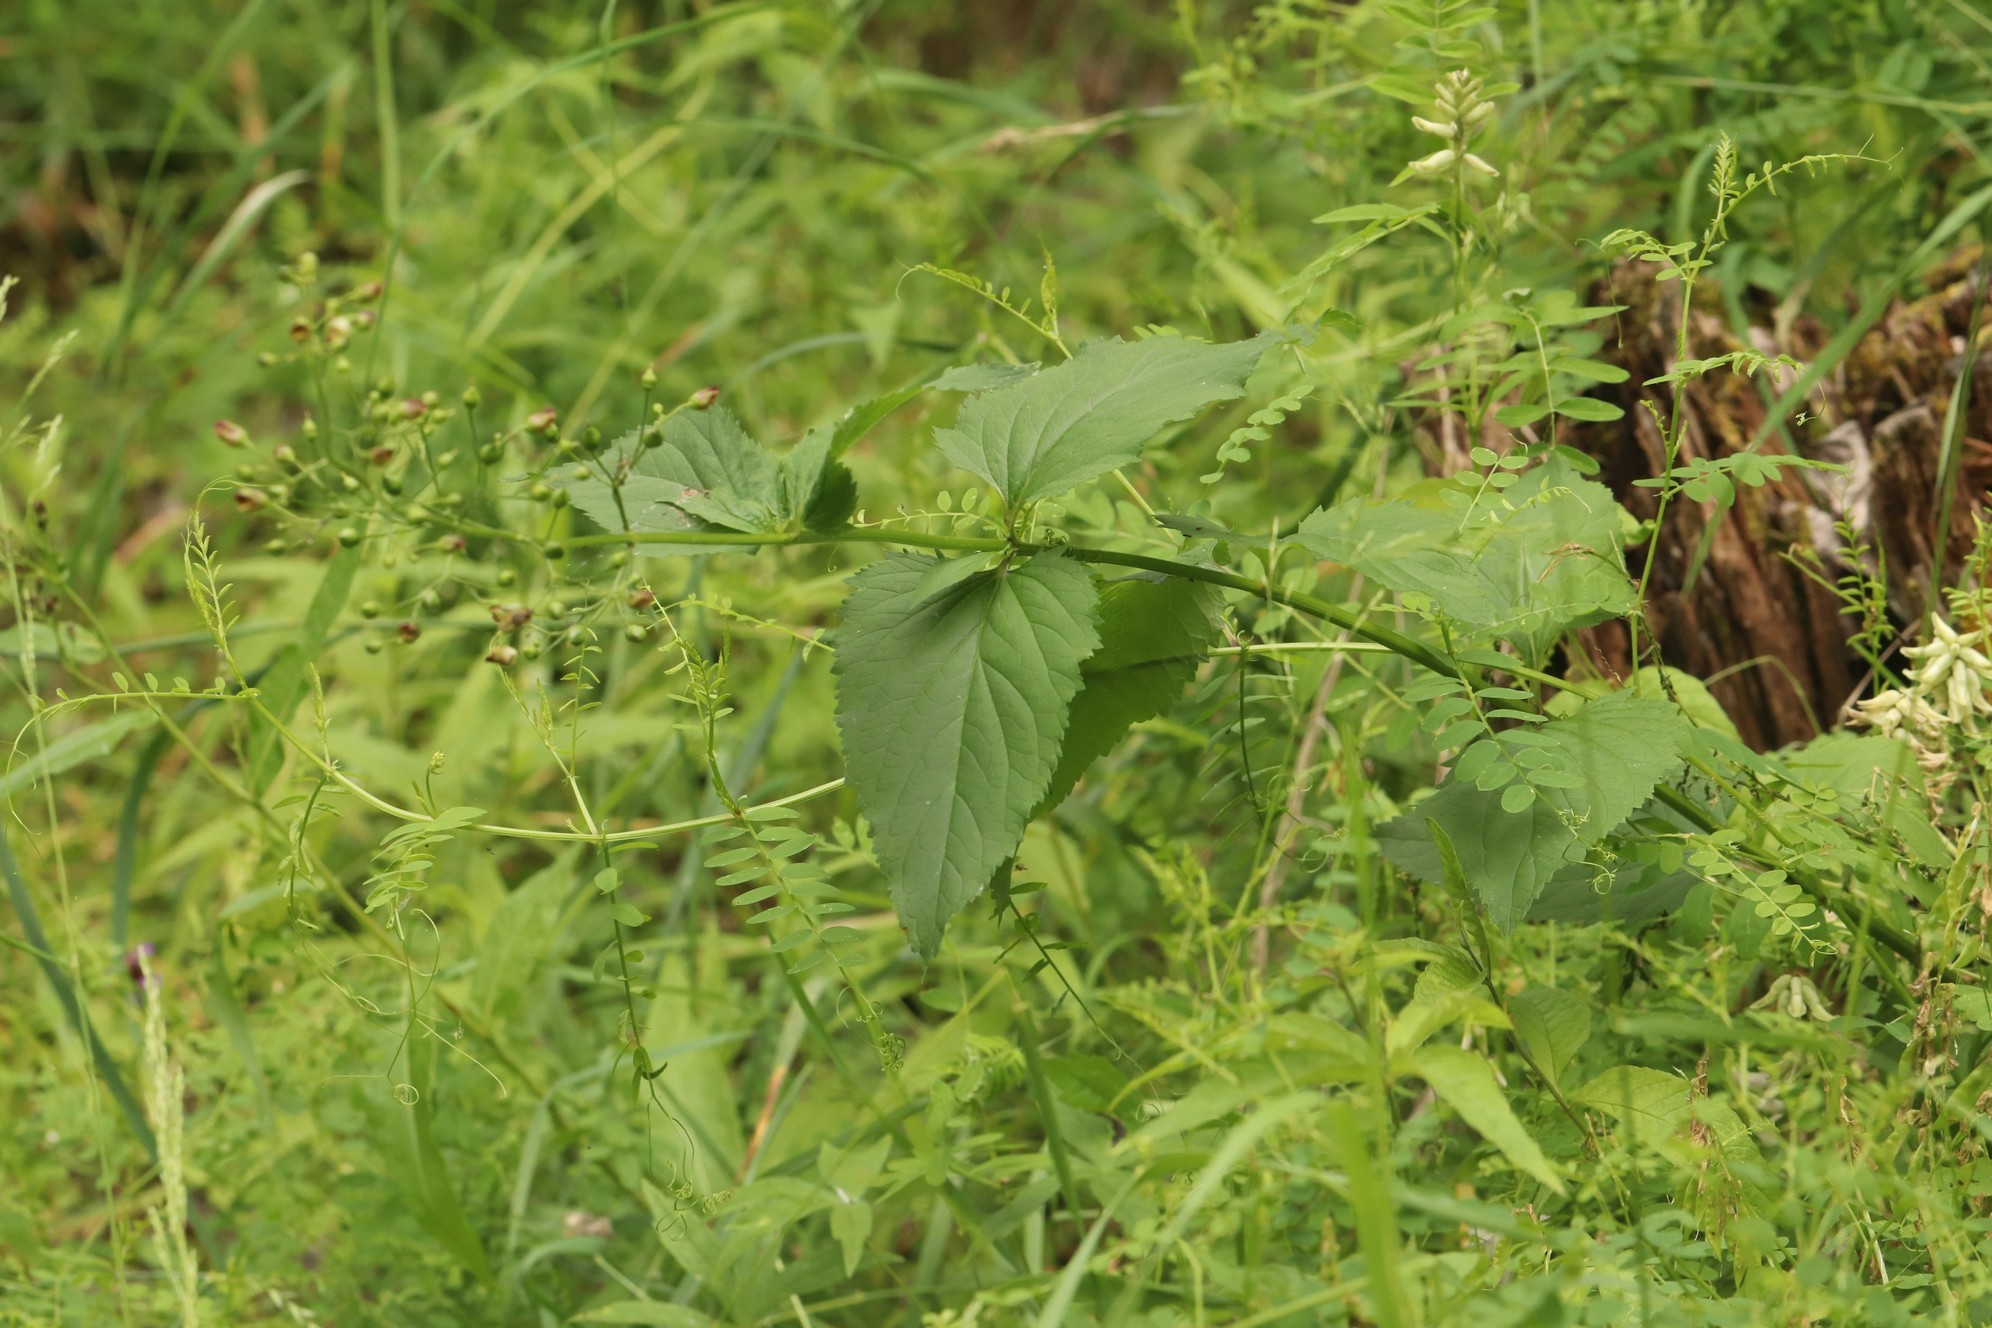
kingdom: Plantae
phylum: Tracheophyta
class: Magnoliopsida
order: Lamiales
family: Scrophulariaceae
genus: Scrophularia
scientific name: Scrophularia nodosa
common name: Common figwort
